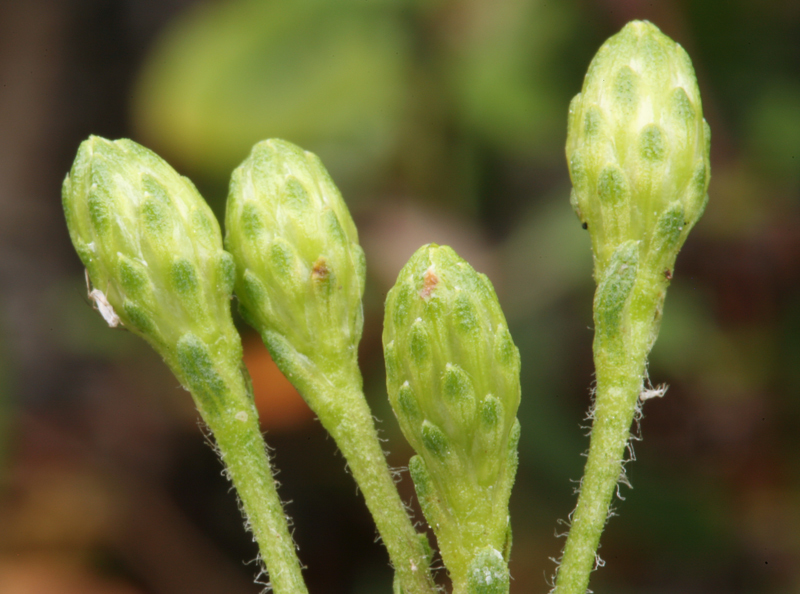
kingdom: Plantae
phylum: Tracheophyta
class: Magnoliopsida
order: Asterales
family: Asteraceae
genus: Isocoma
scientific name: Isocoma menziesii
